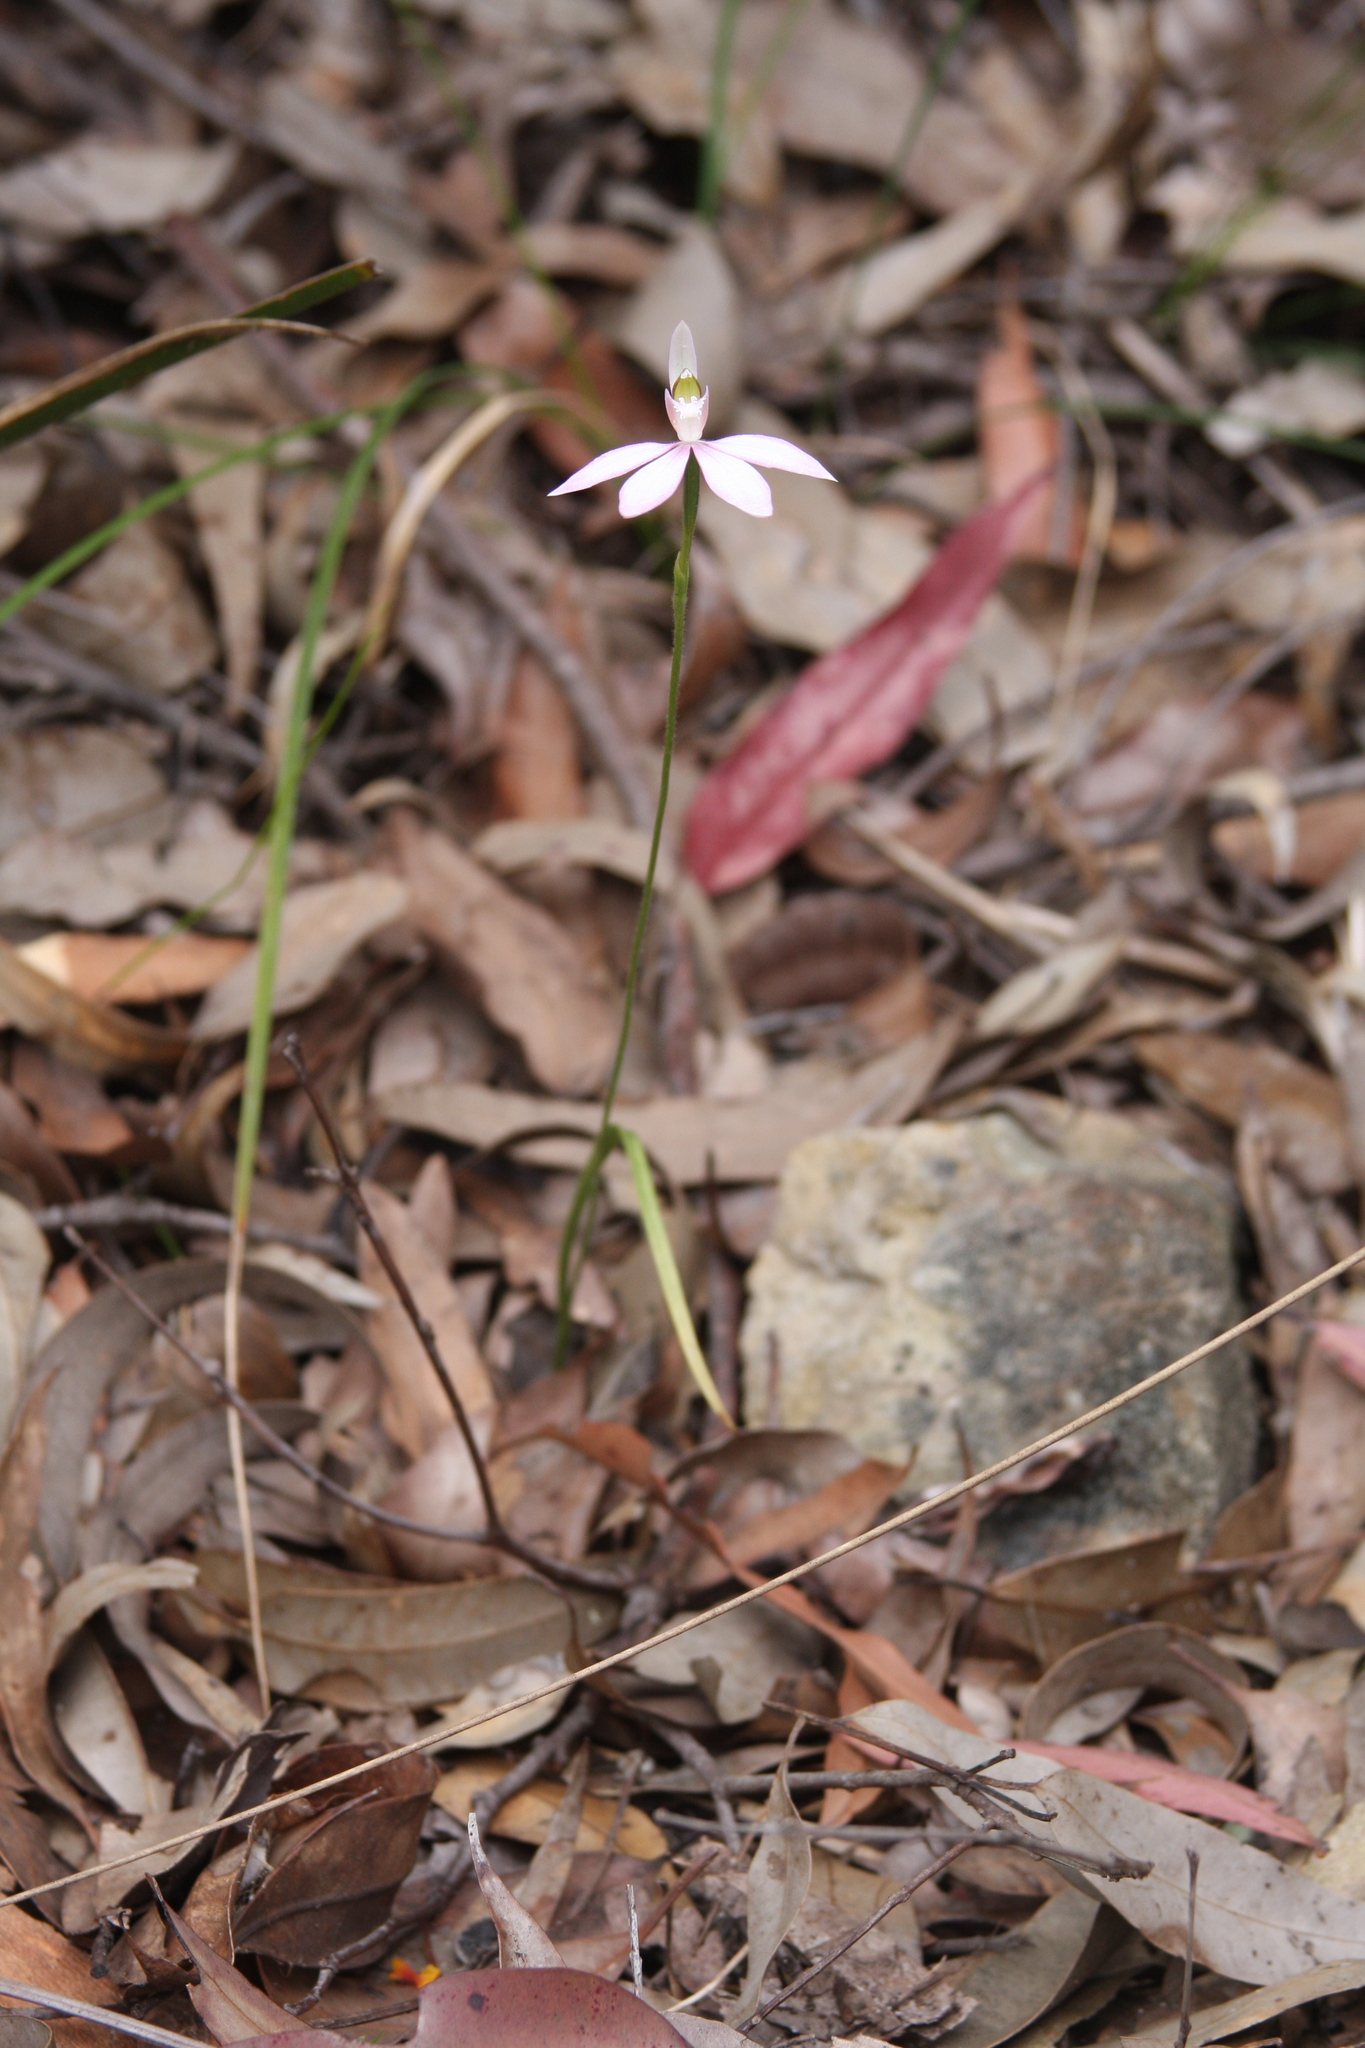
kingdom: Plantae
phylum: Tracheophyta
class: Liliopsida
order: Asparagales
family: Orchidaceae
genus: Caladenia
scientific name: Caladenia catenata
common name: White caladenia
